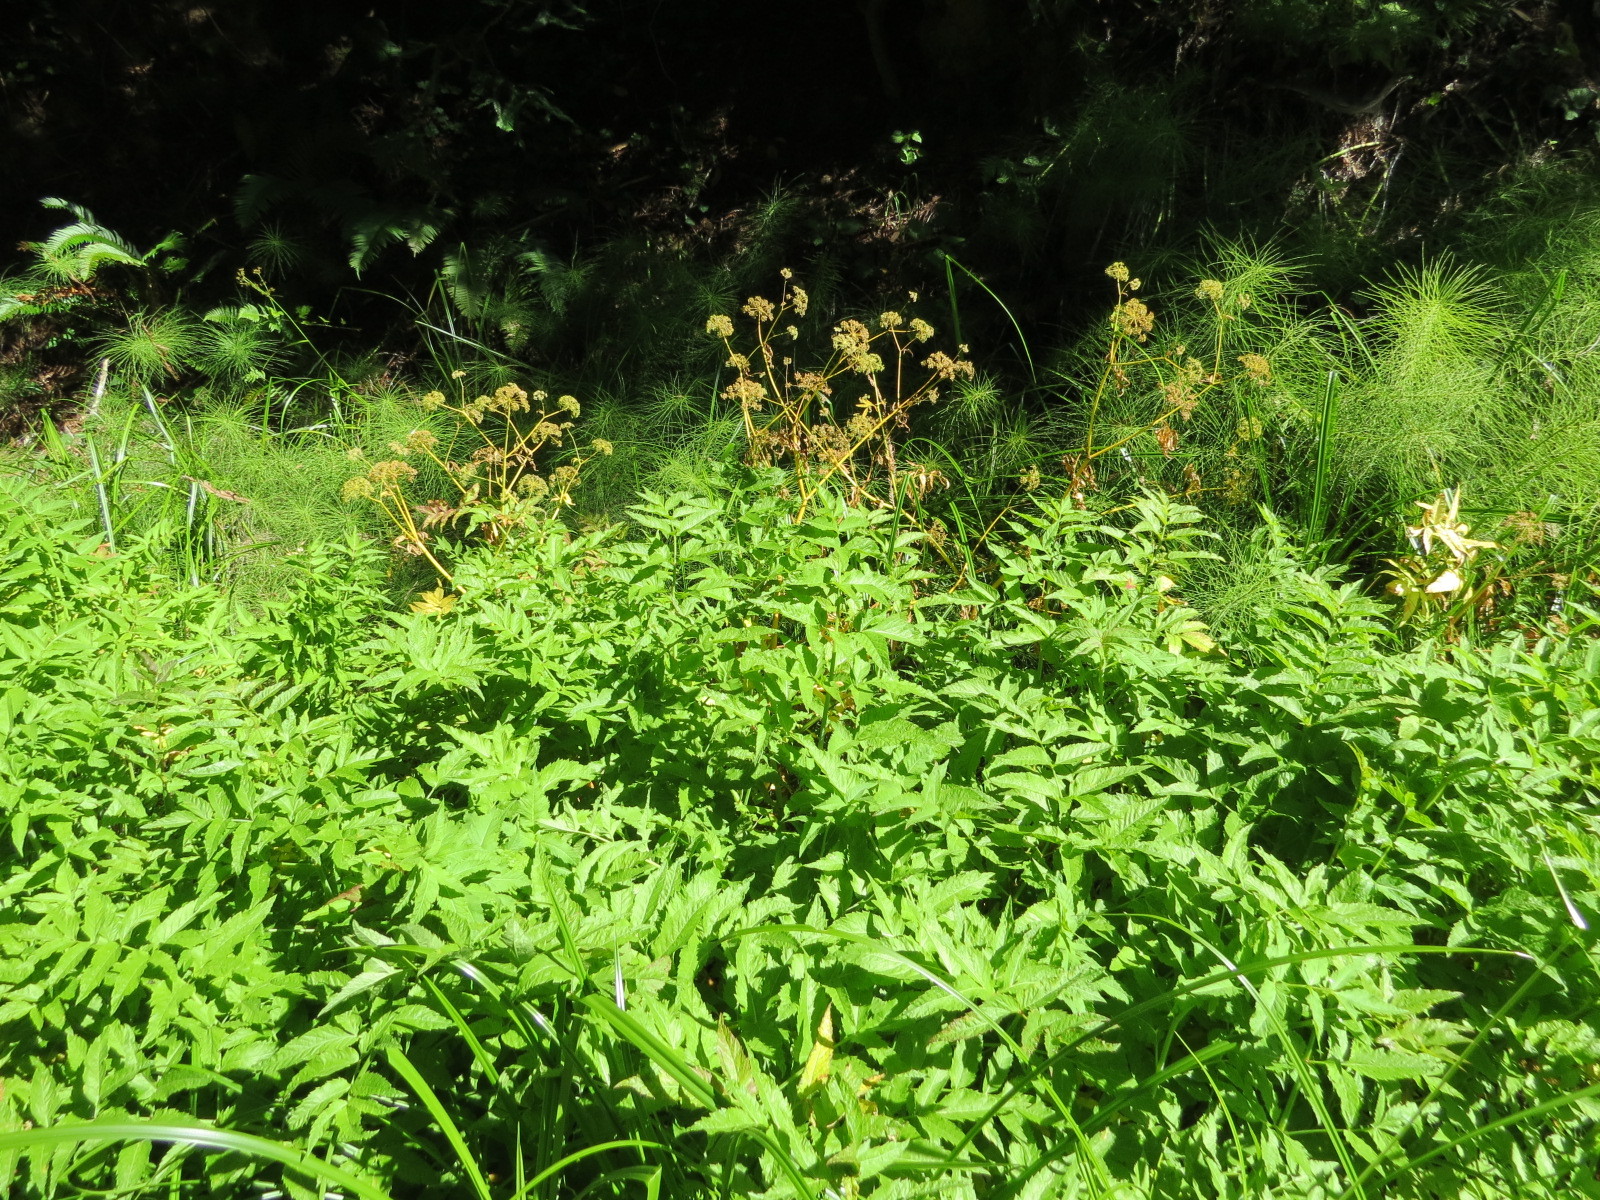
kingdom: Plantae
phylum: Tracheophyta
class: Magnoliopsida
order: Apiales
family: Apiaceae
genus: Cicuta
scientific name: Cicuta douglasii
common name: Western water-hemlock
